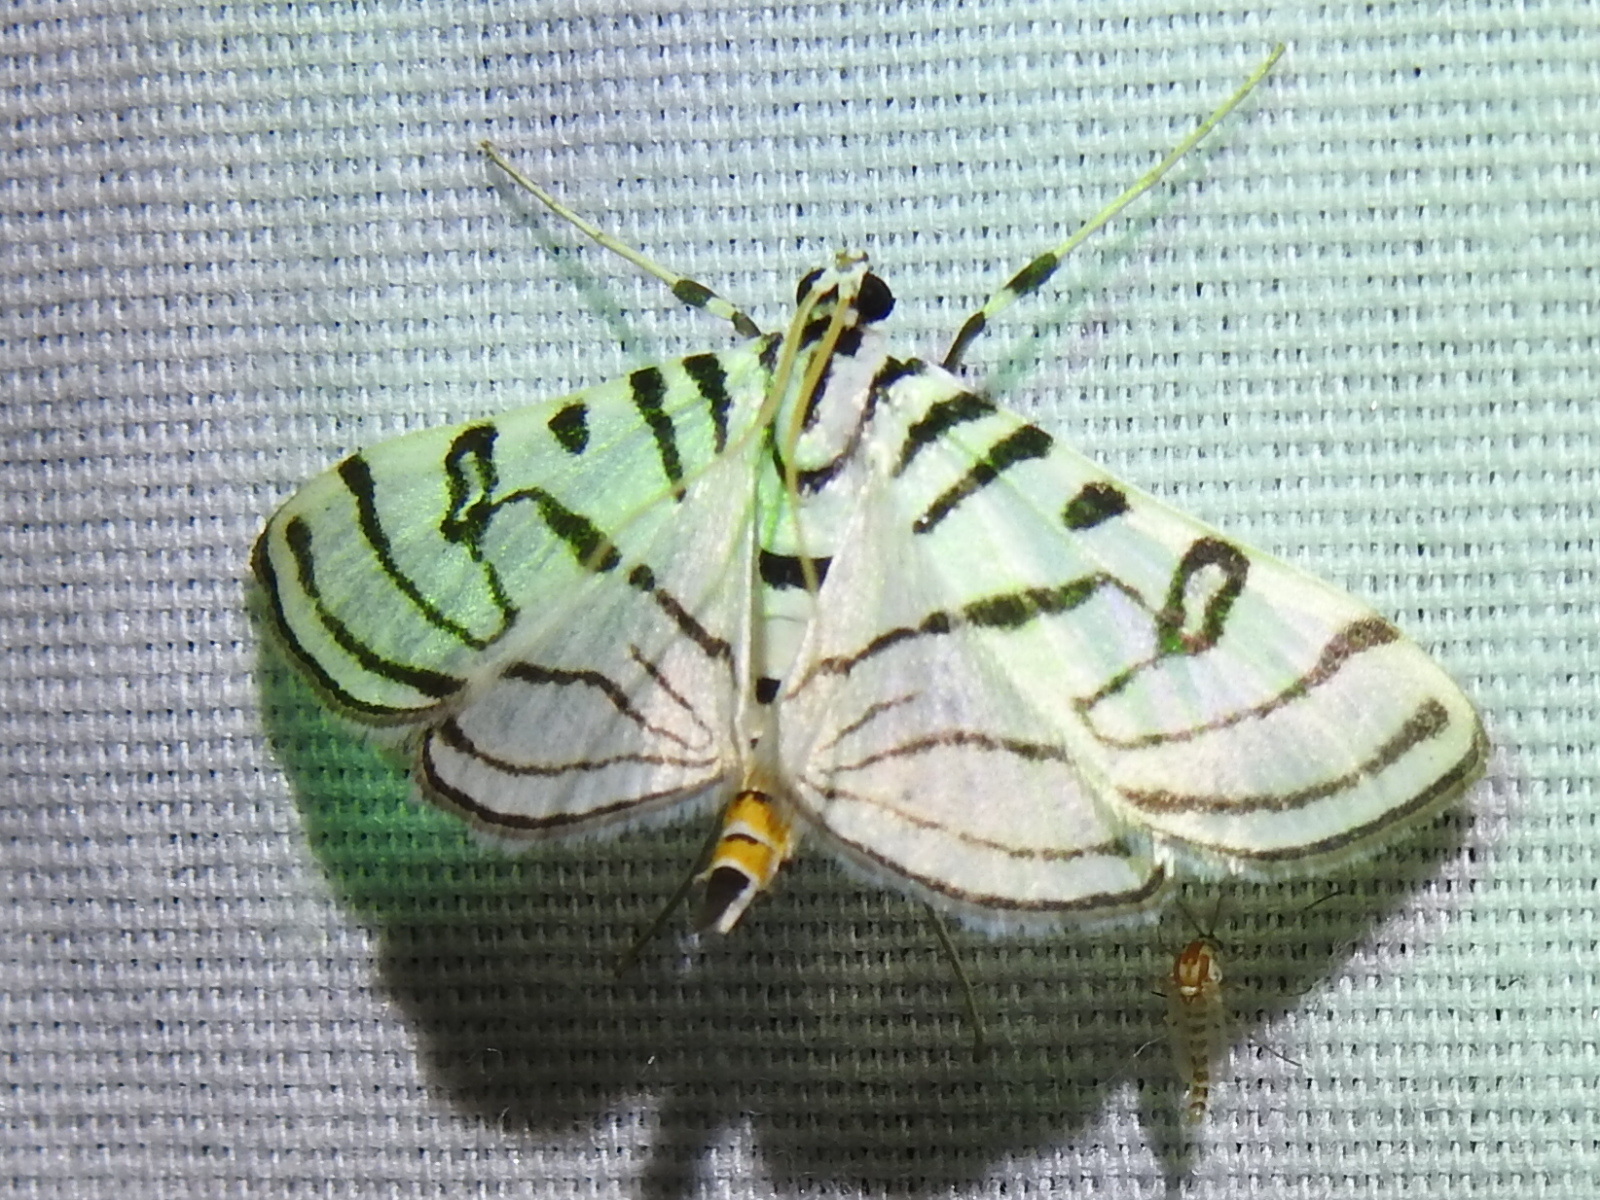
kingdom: Animalia
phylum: Arthropoda
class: Insecta
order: Lepidoptera
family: Crambidae
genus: Conchylodes
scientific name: Conchylodes ovulalis
